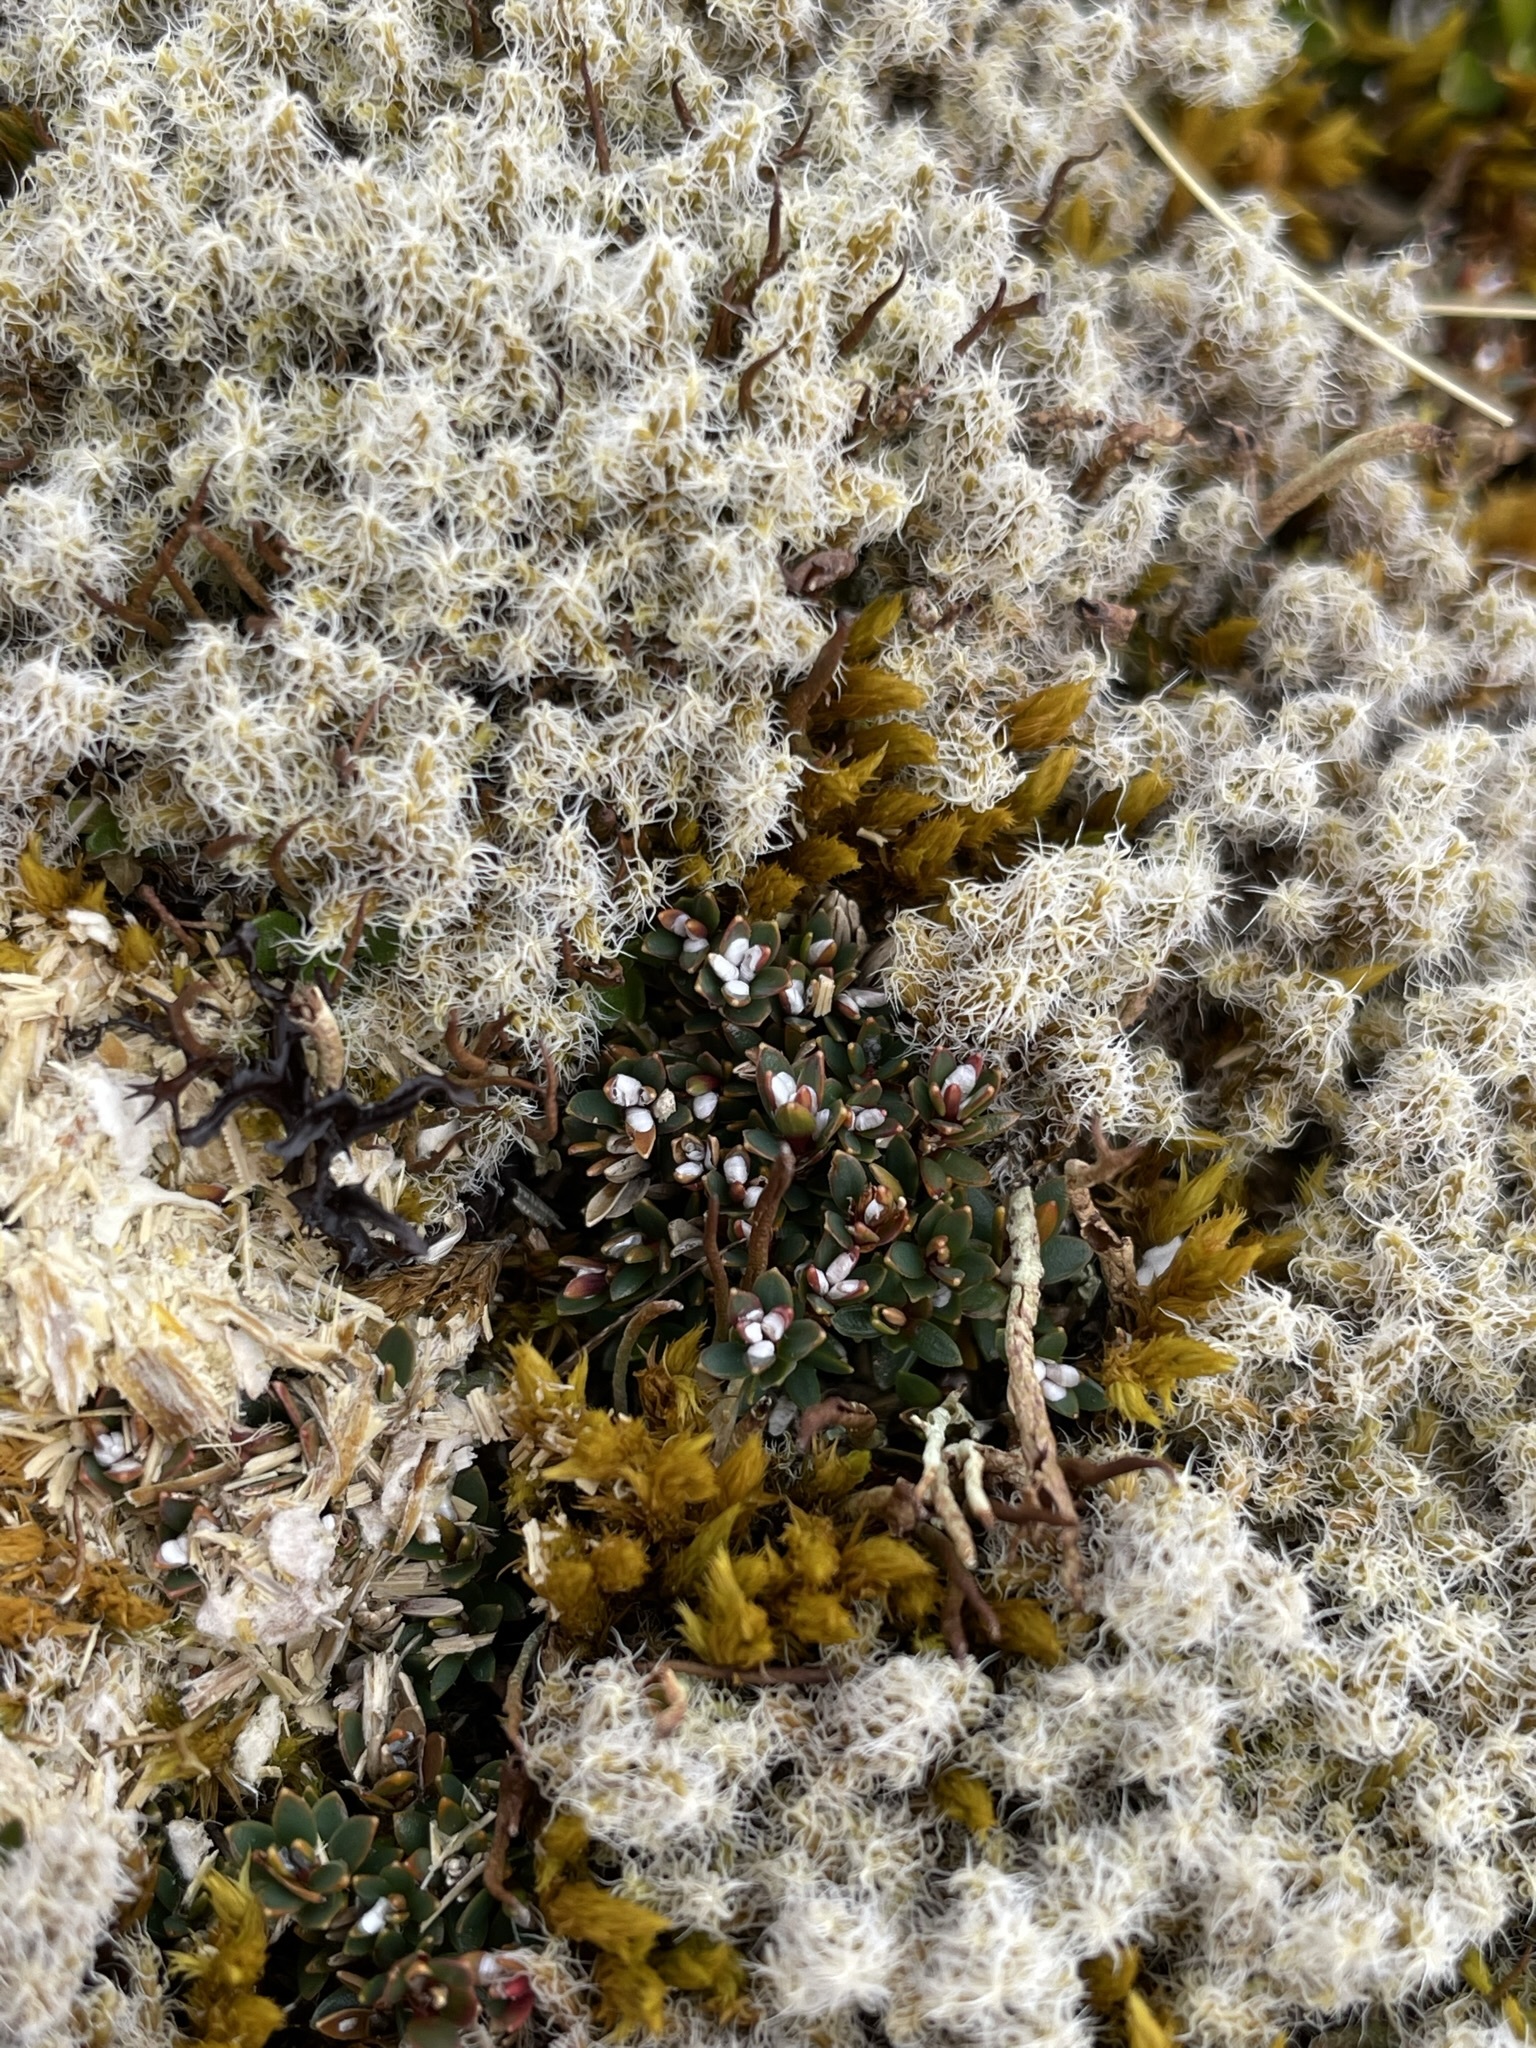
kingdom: Plantae
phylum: Tracheophyta
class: Magnoliopsida
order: Ericales
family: Ericaceae
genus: Pentachondra
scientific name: Pentachondra pumila
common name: Carpet-heath
